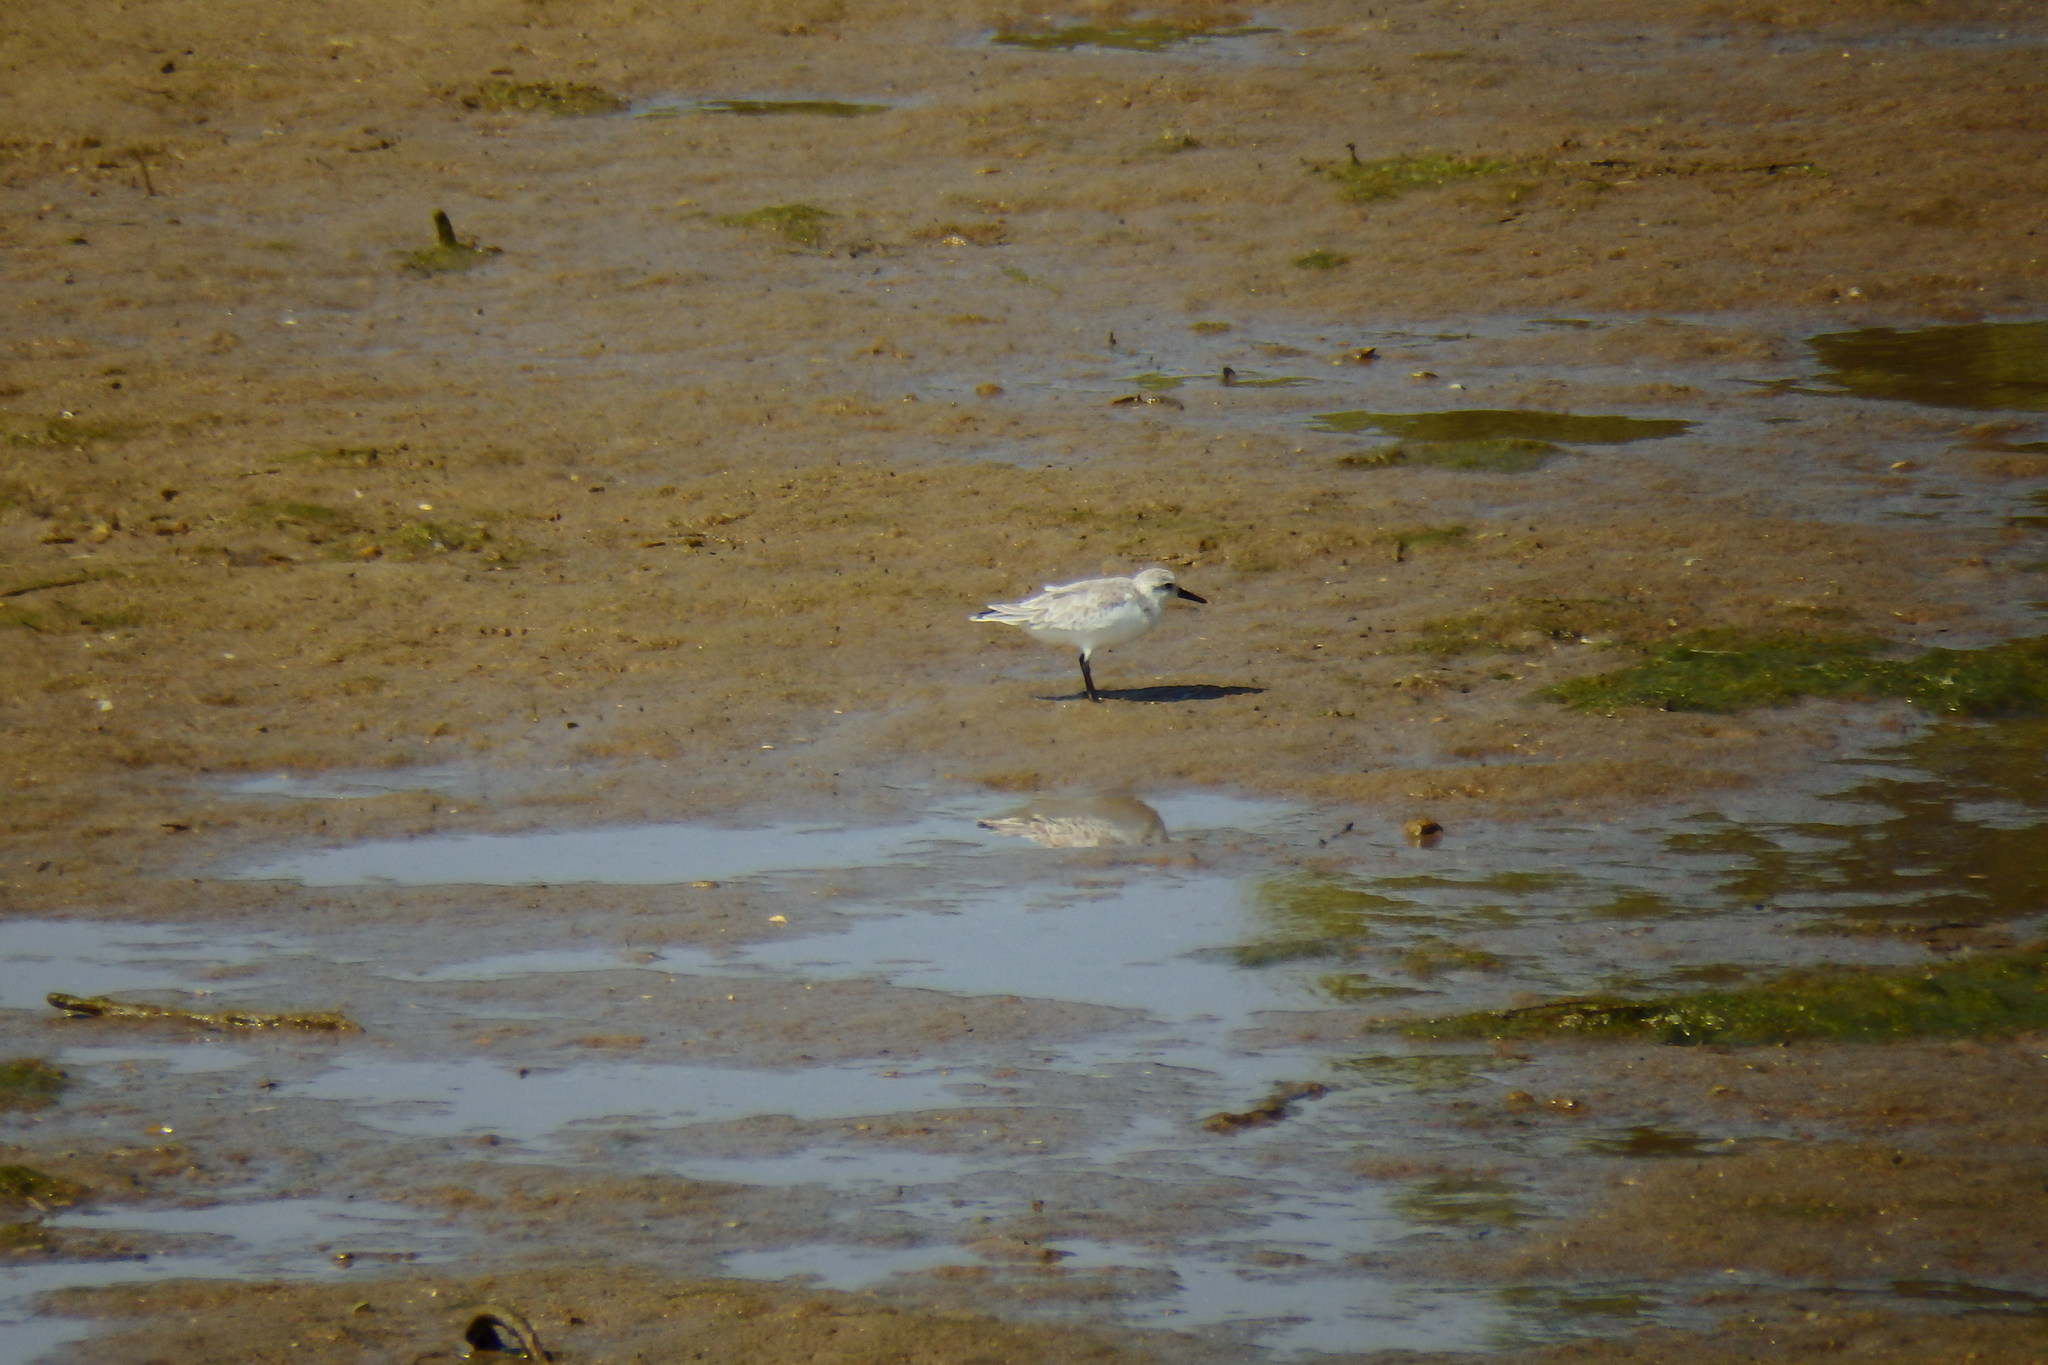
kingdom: Animalia
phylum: Chordata
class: Aves
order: Charadriiformes
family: Scolopacidae
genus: Calidris
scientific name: Calidris alba
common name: Sanderling
